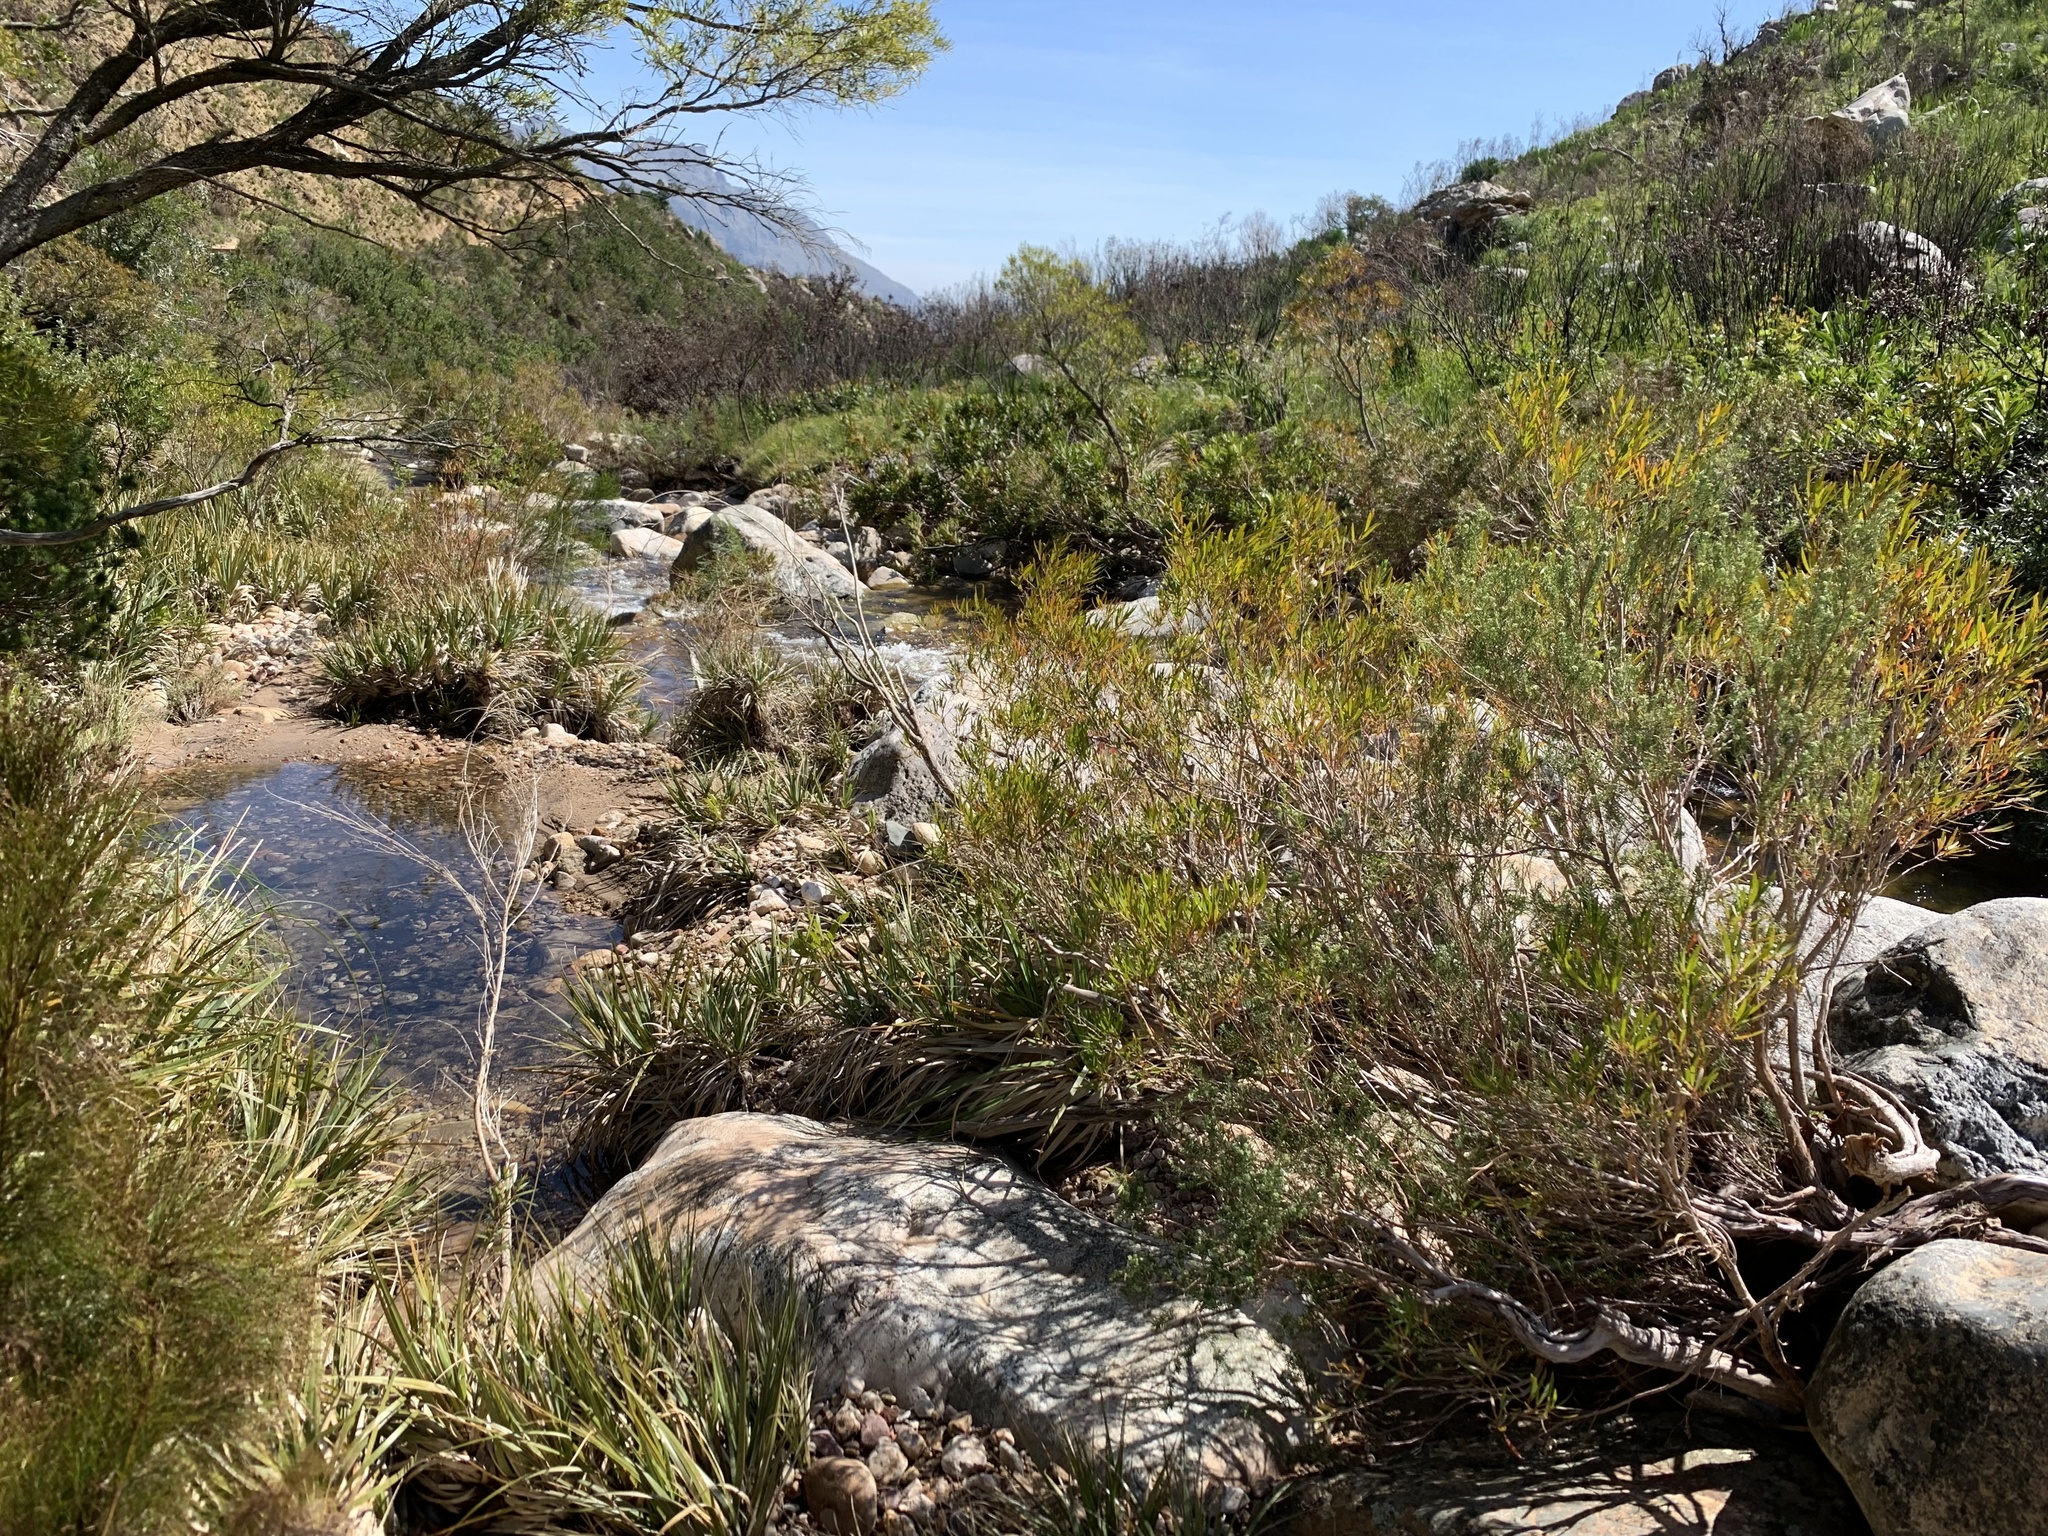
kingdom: Plantae
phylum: Tracheophyta
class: Magnoliopsida
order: Myrtales
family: Myrtaceae
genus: Callistemon
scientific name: Callistemon lanceolatus
